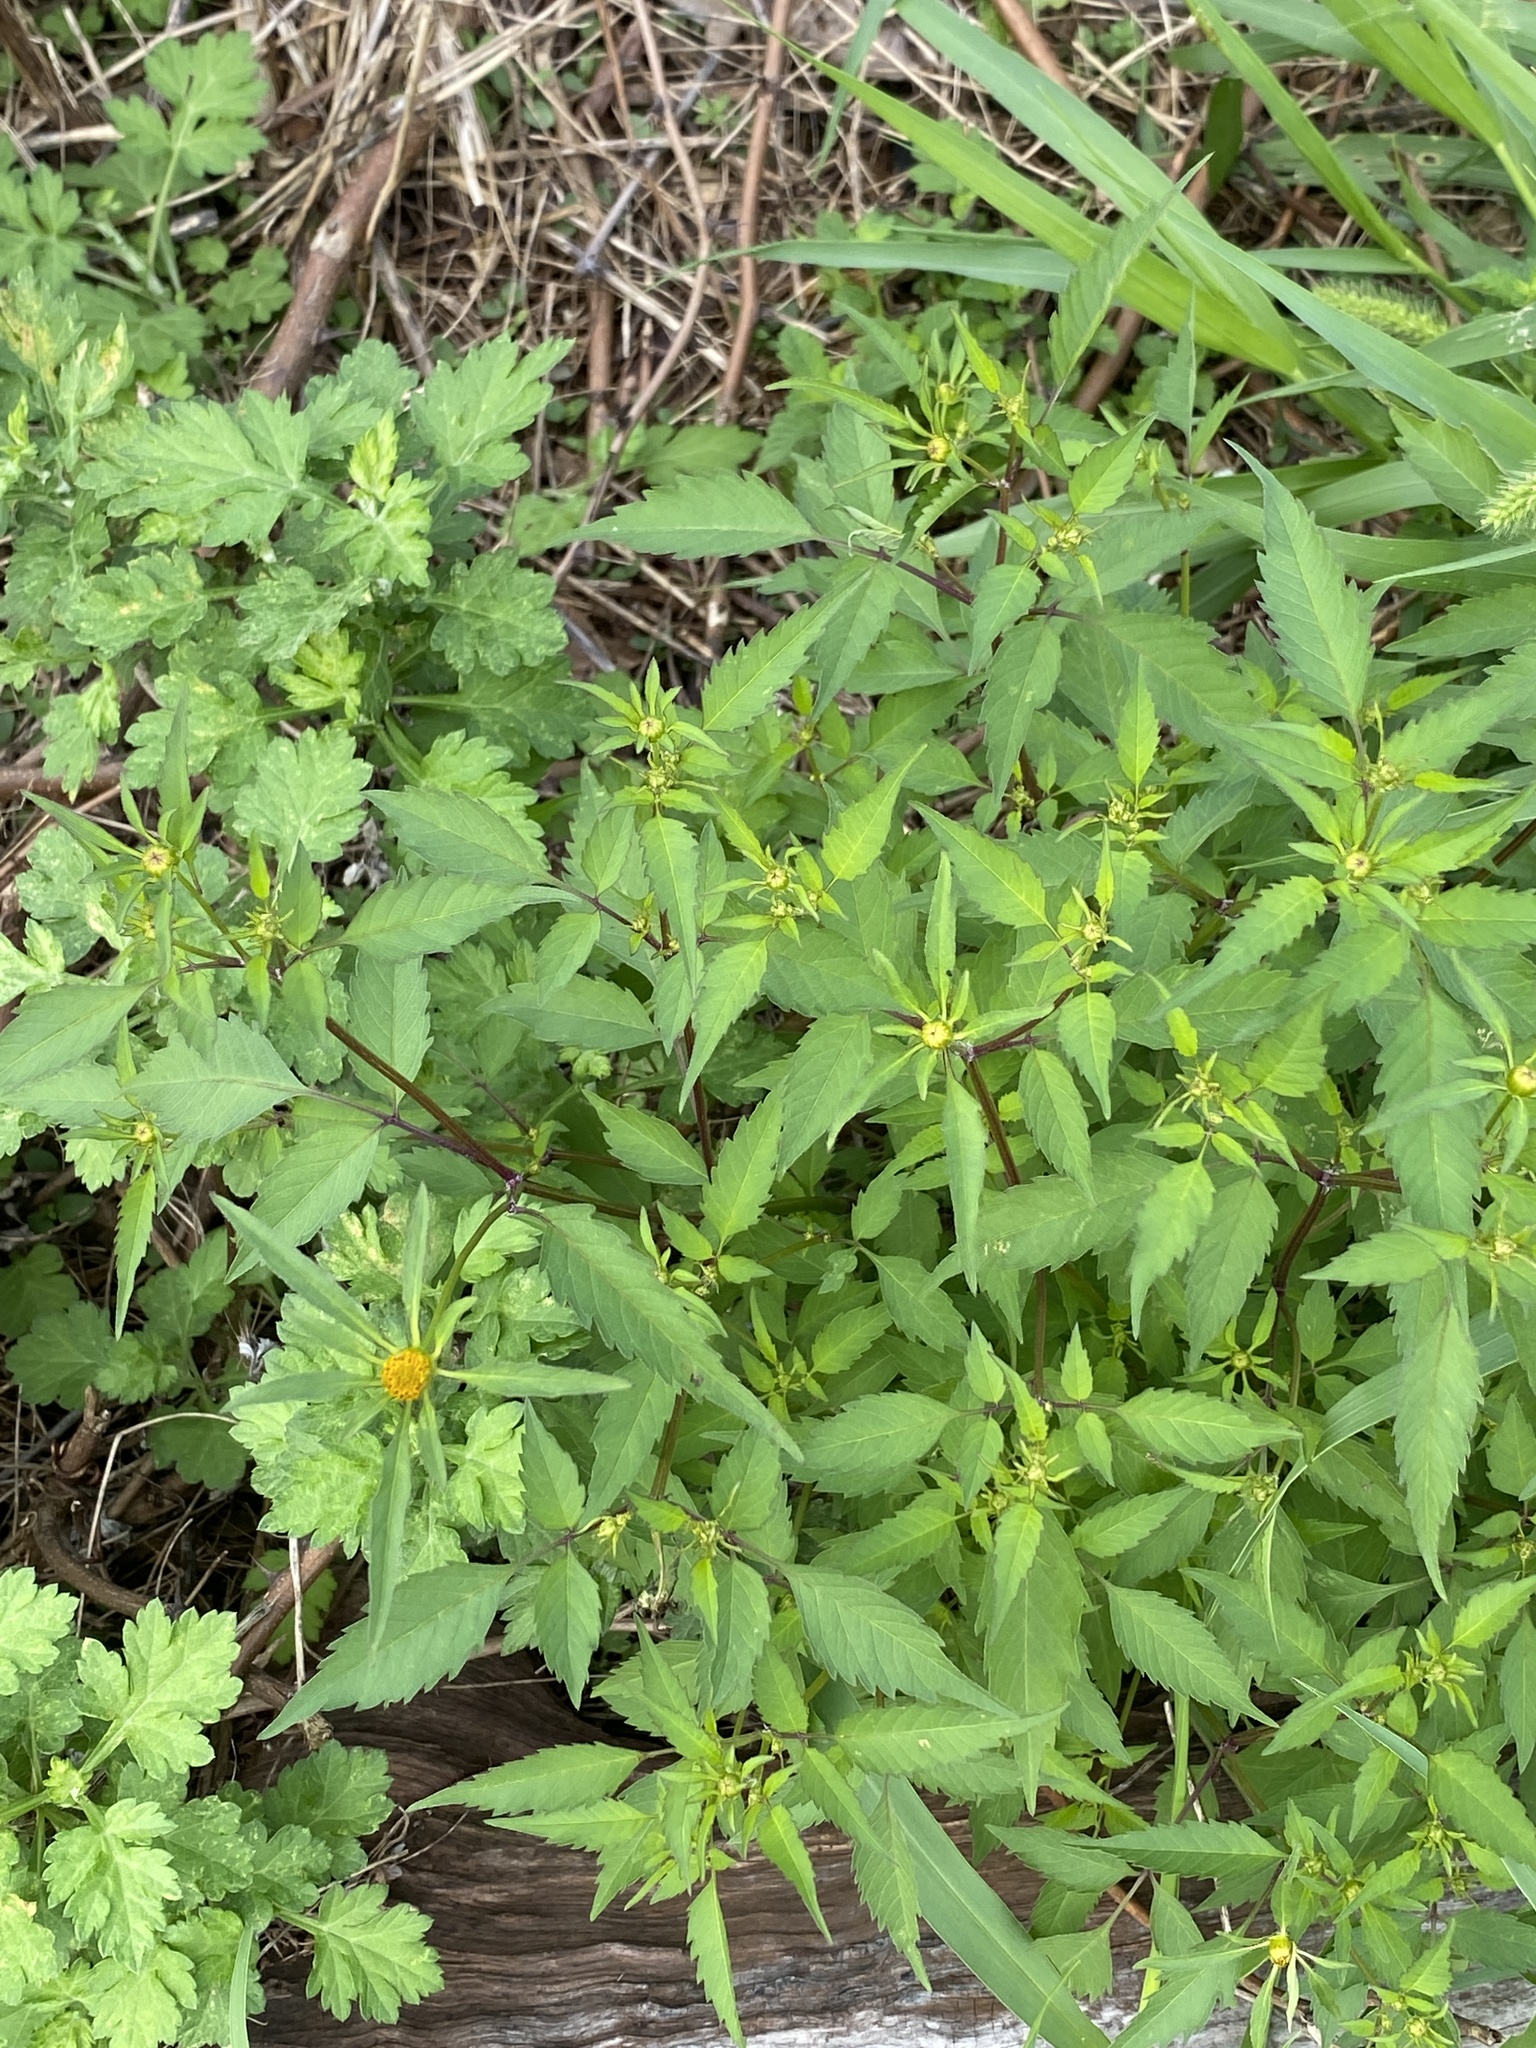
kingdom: Plantae
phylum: Tracheophyta
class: Magnoliopsida
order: Asterales
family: Asteraceae
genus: Bidens
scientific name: Bidens frondosa
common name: Beggarticks
